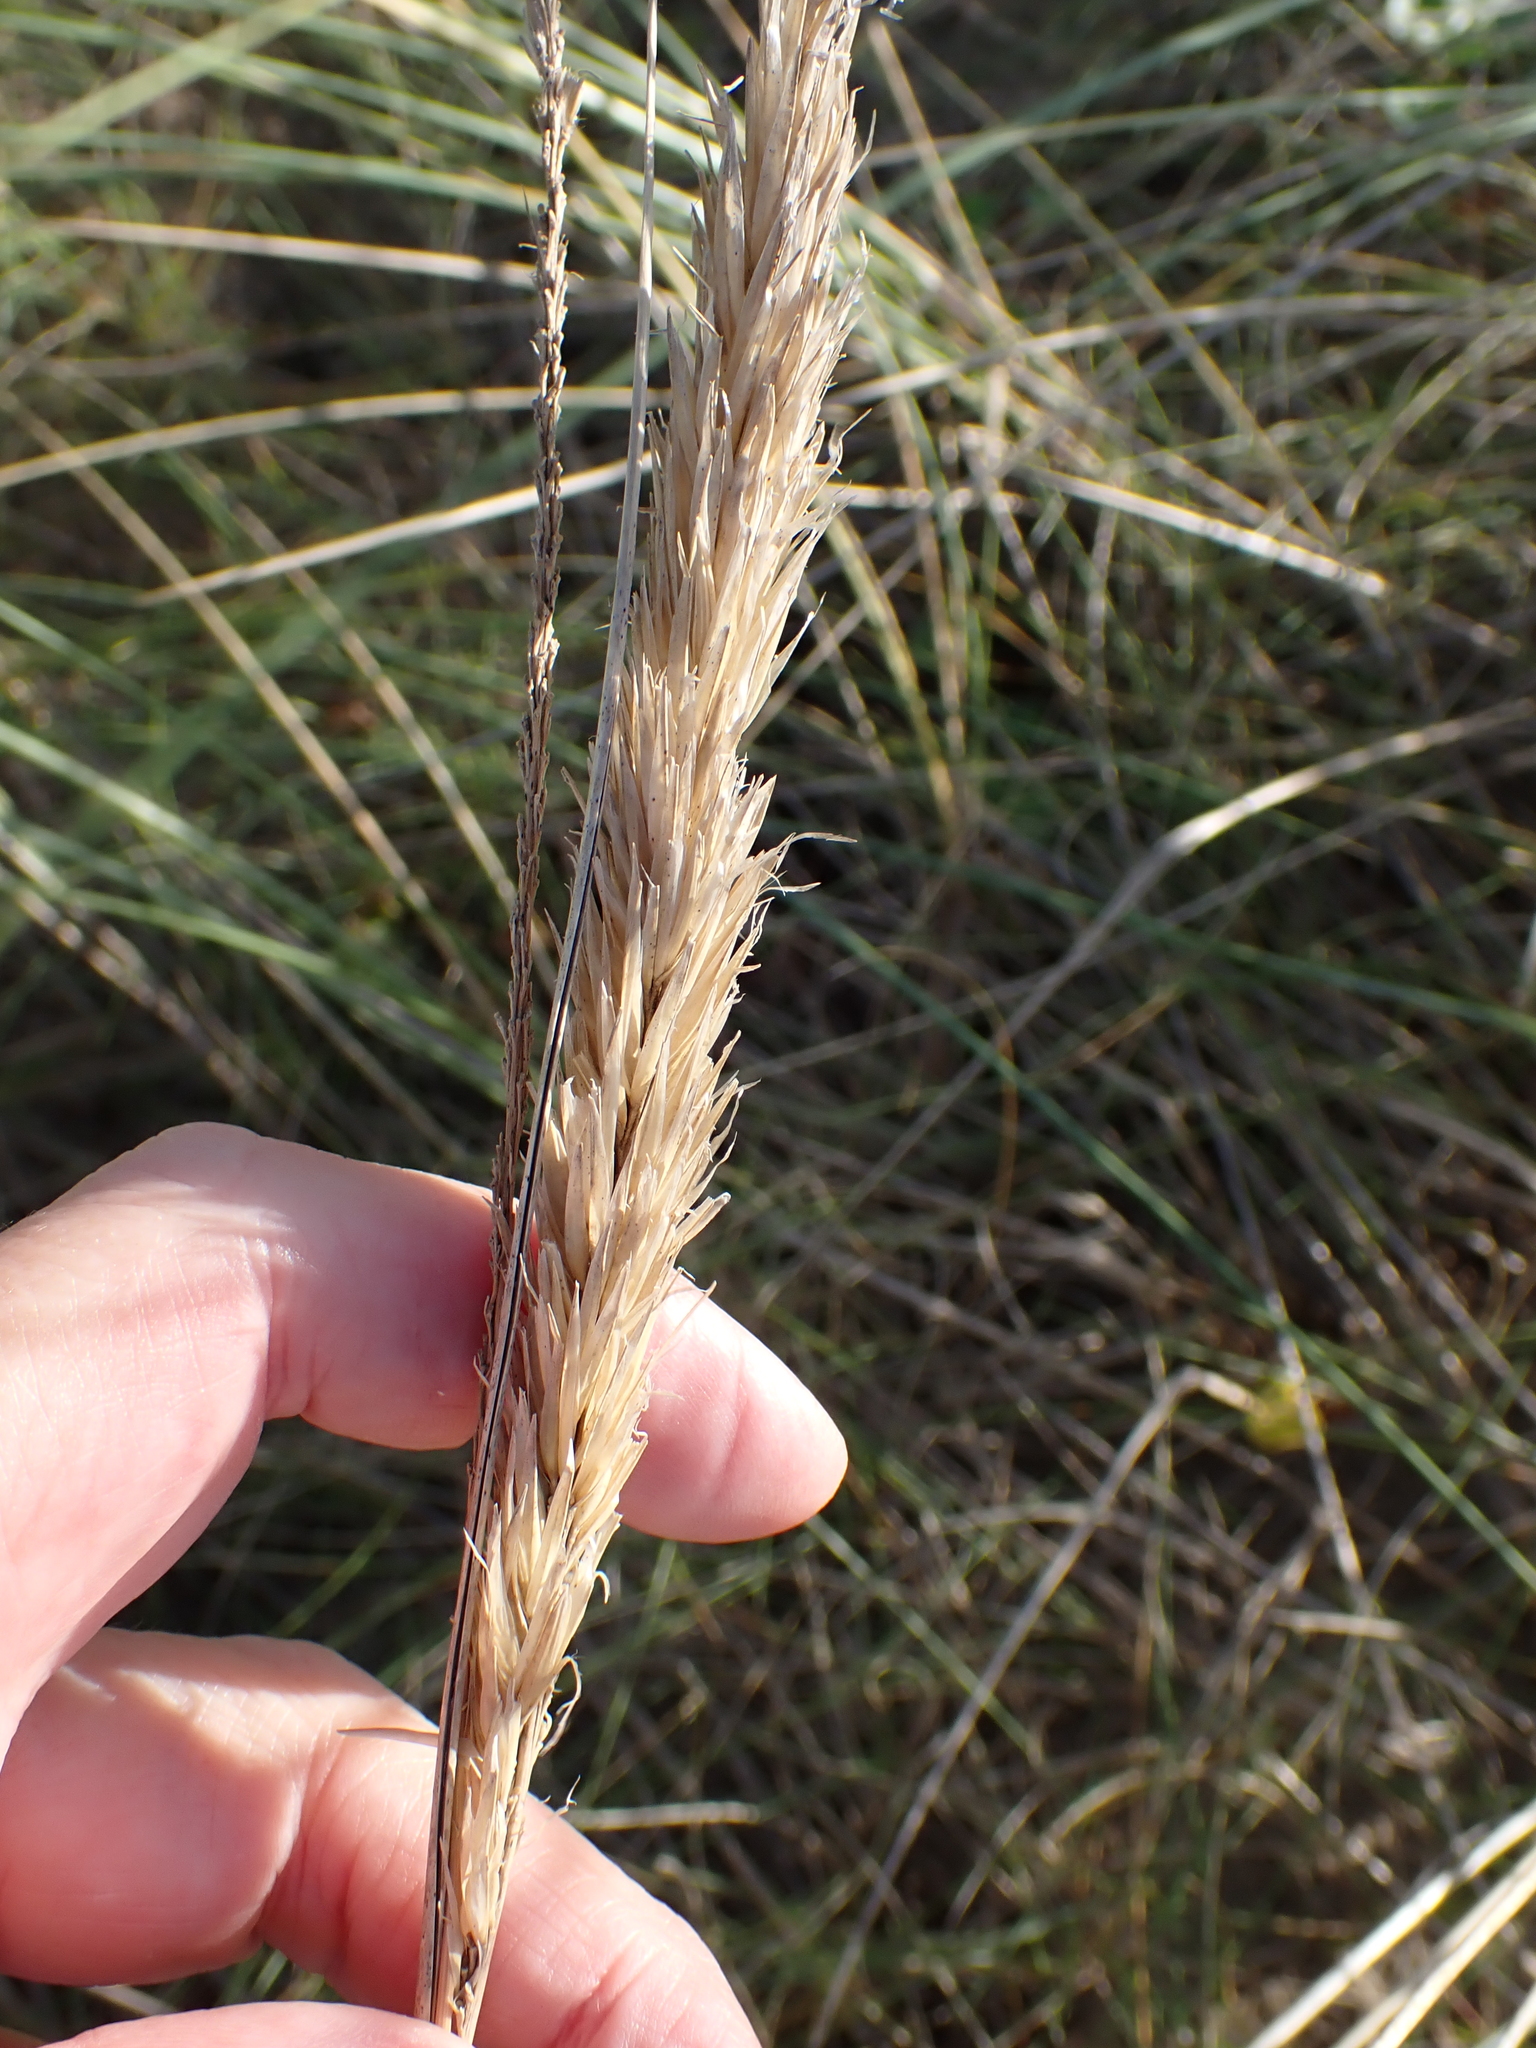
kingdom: Plantae
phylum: Tracheophyta
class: Liliopsida
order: Poales
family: Poaceae
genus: Calamagrostis
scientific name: Calamagrostis arenaria
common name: European beachgrass
